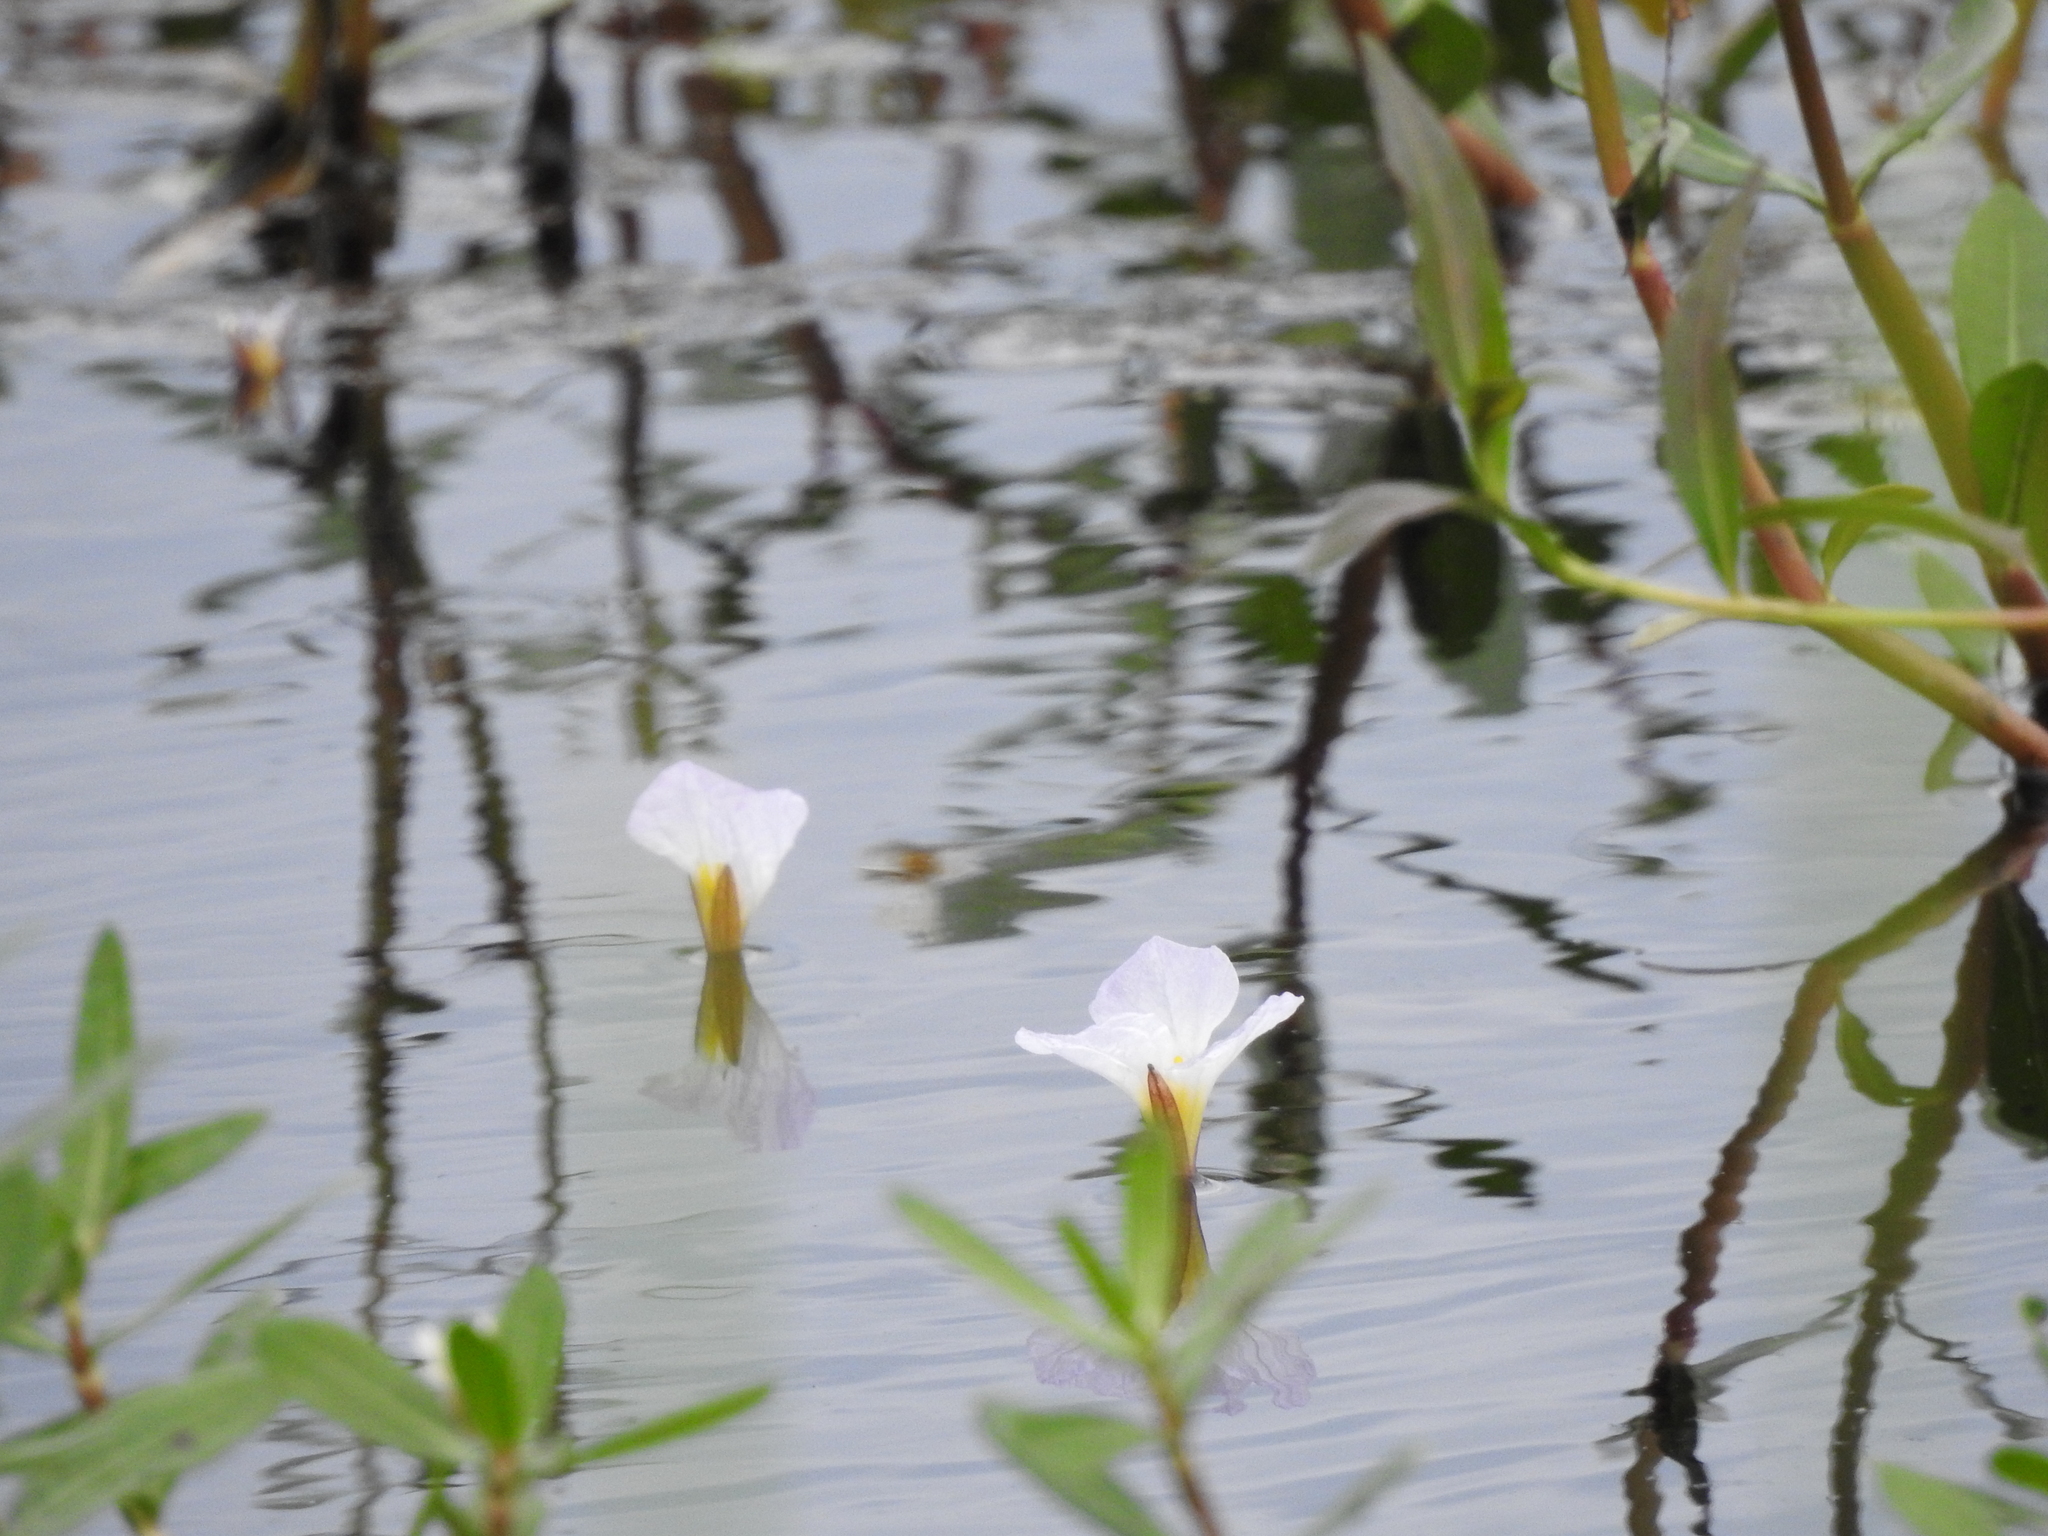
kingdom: Plantae
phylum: Tracheophyta
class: Liliopsida
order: Alismatales
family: Hydrocharitaceae
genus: Ottelia
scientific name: Ottelia alismoides
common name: Duck-lettuce
